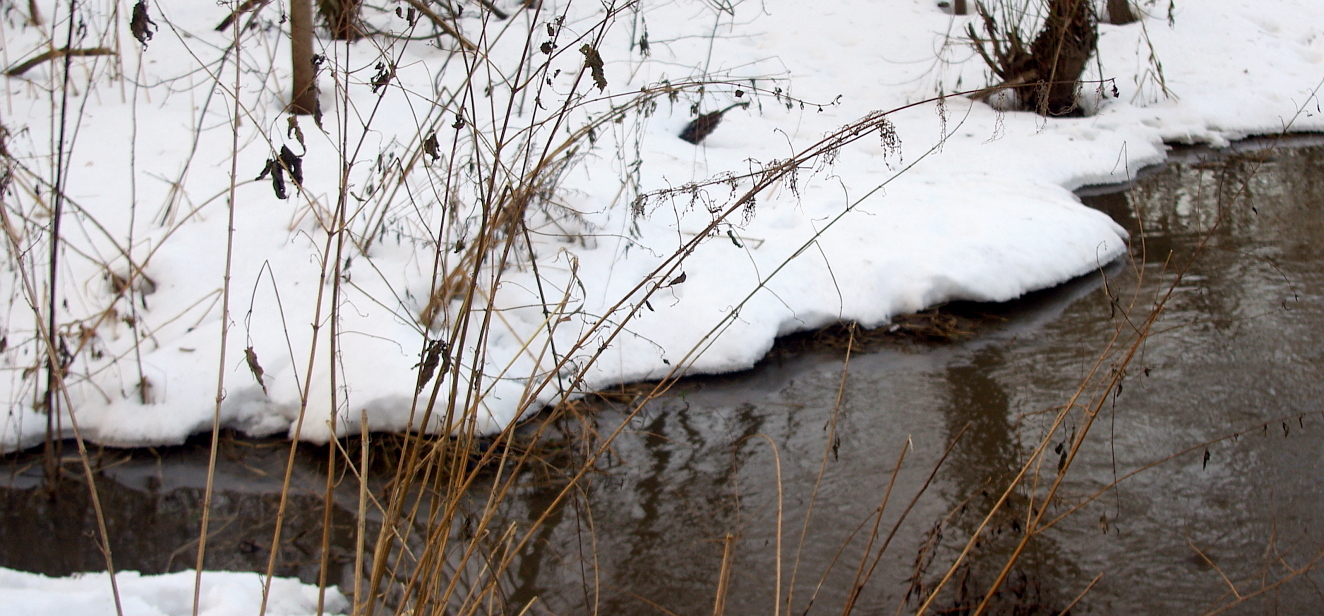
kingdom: Plantae
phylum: Tracheophyta
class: Magnoliopsida
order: Rosales
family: Urticaceae
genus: Urtica
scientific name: Urtica dioica
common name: Common nettle
